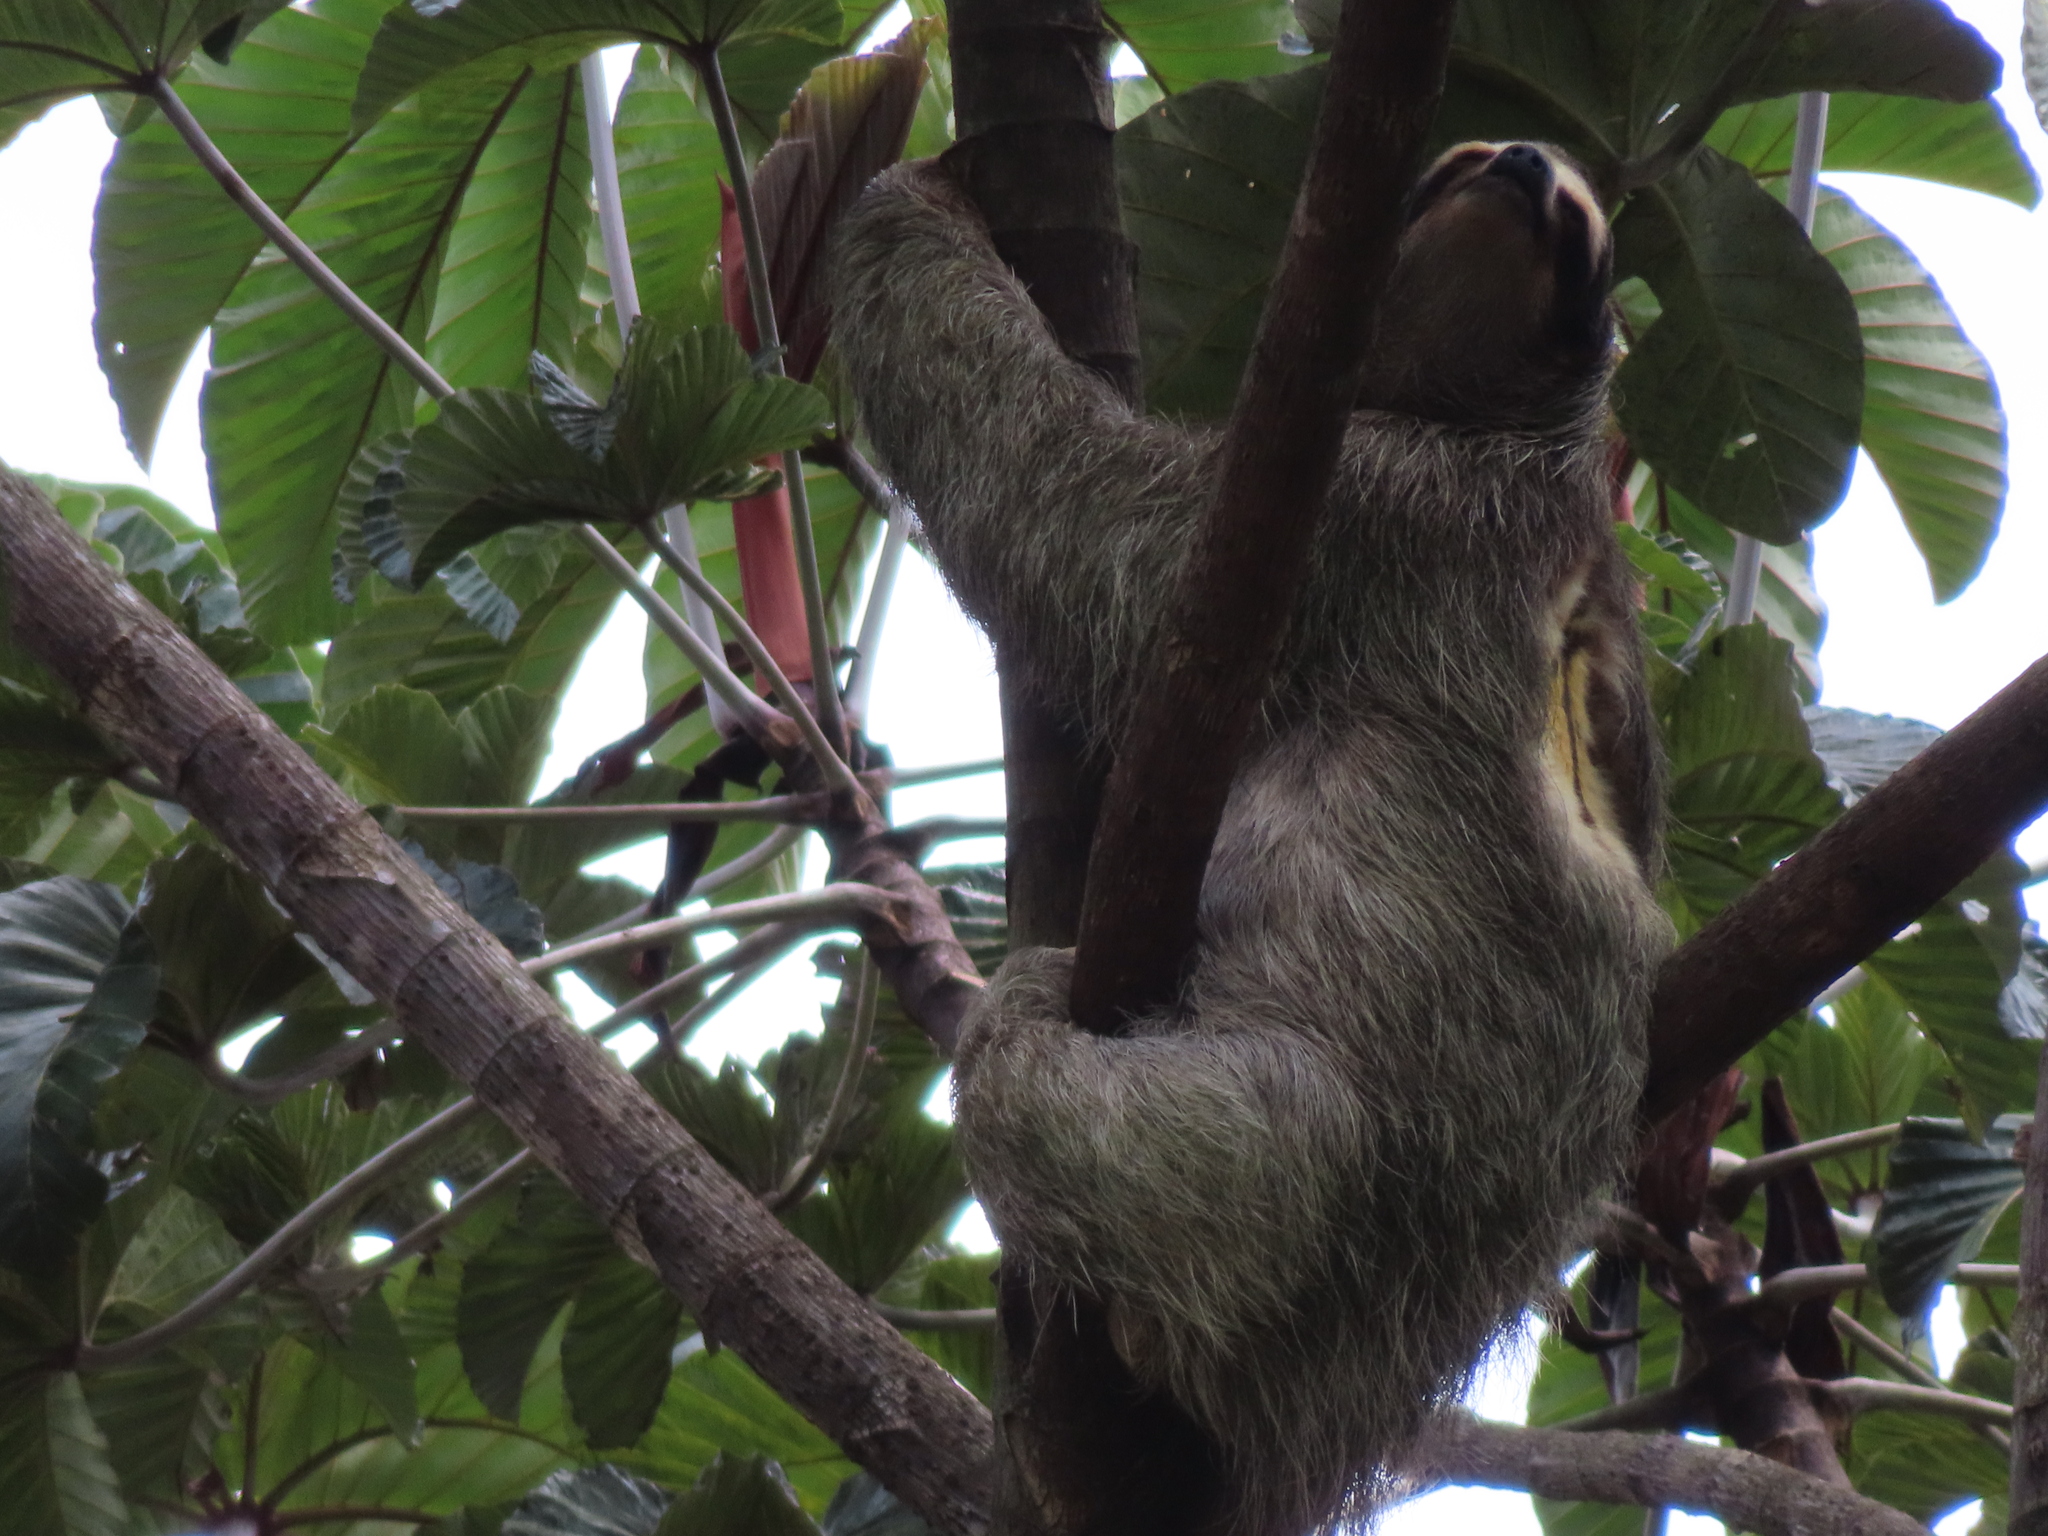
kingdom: Animalia
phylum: Chordata
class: Mammalia
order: Pilosa
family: Bradypodidae
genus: Bradypus
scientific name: Bradypus variegatus
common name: Brown-throated three-toed sloth
